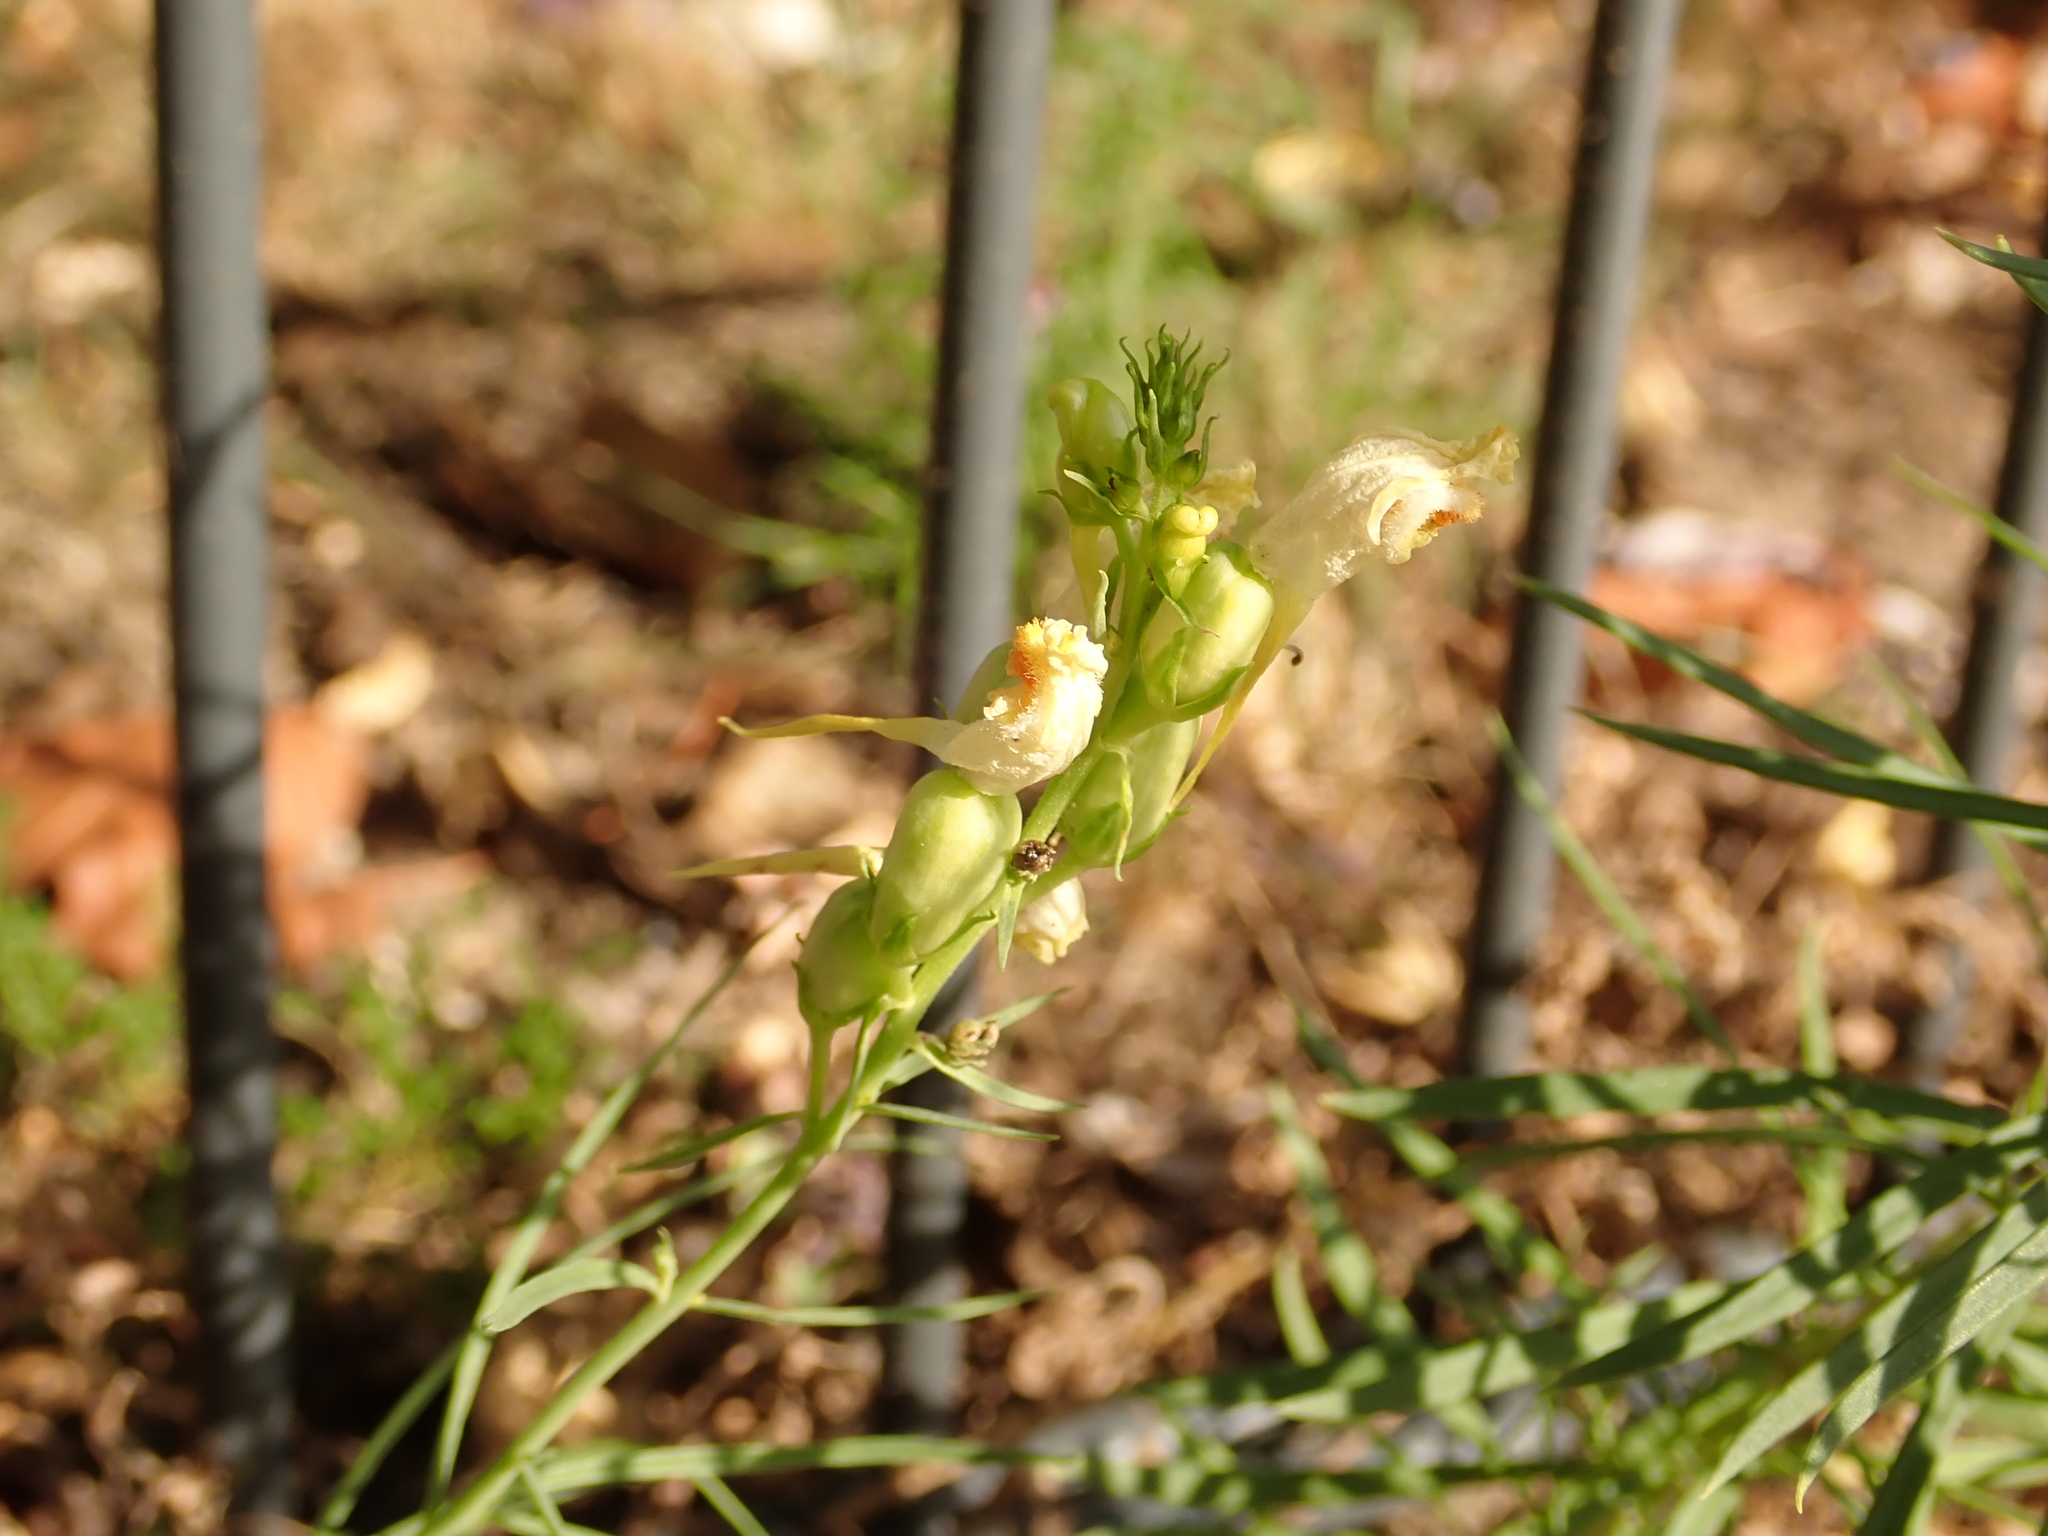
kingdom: Plantae
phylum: Tracheophyta
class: Magnoliopsida
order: Lamiales
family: Plantaginaceae
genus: Linaria
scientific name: Linaria vulgaris
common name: Butter and eggs
